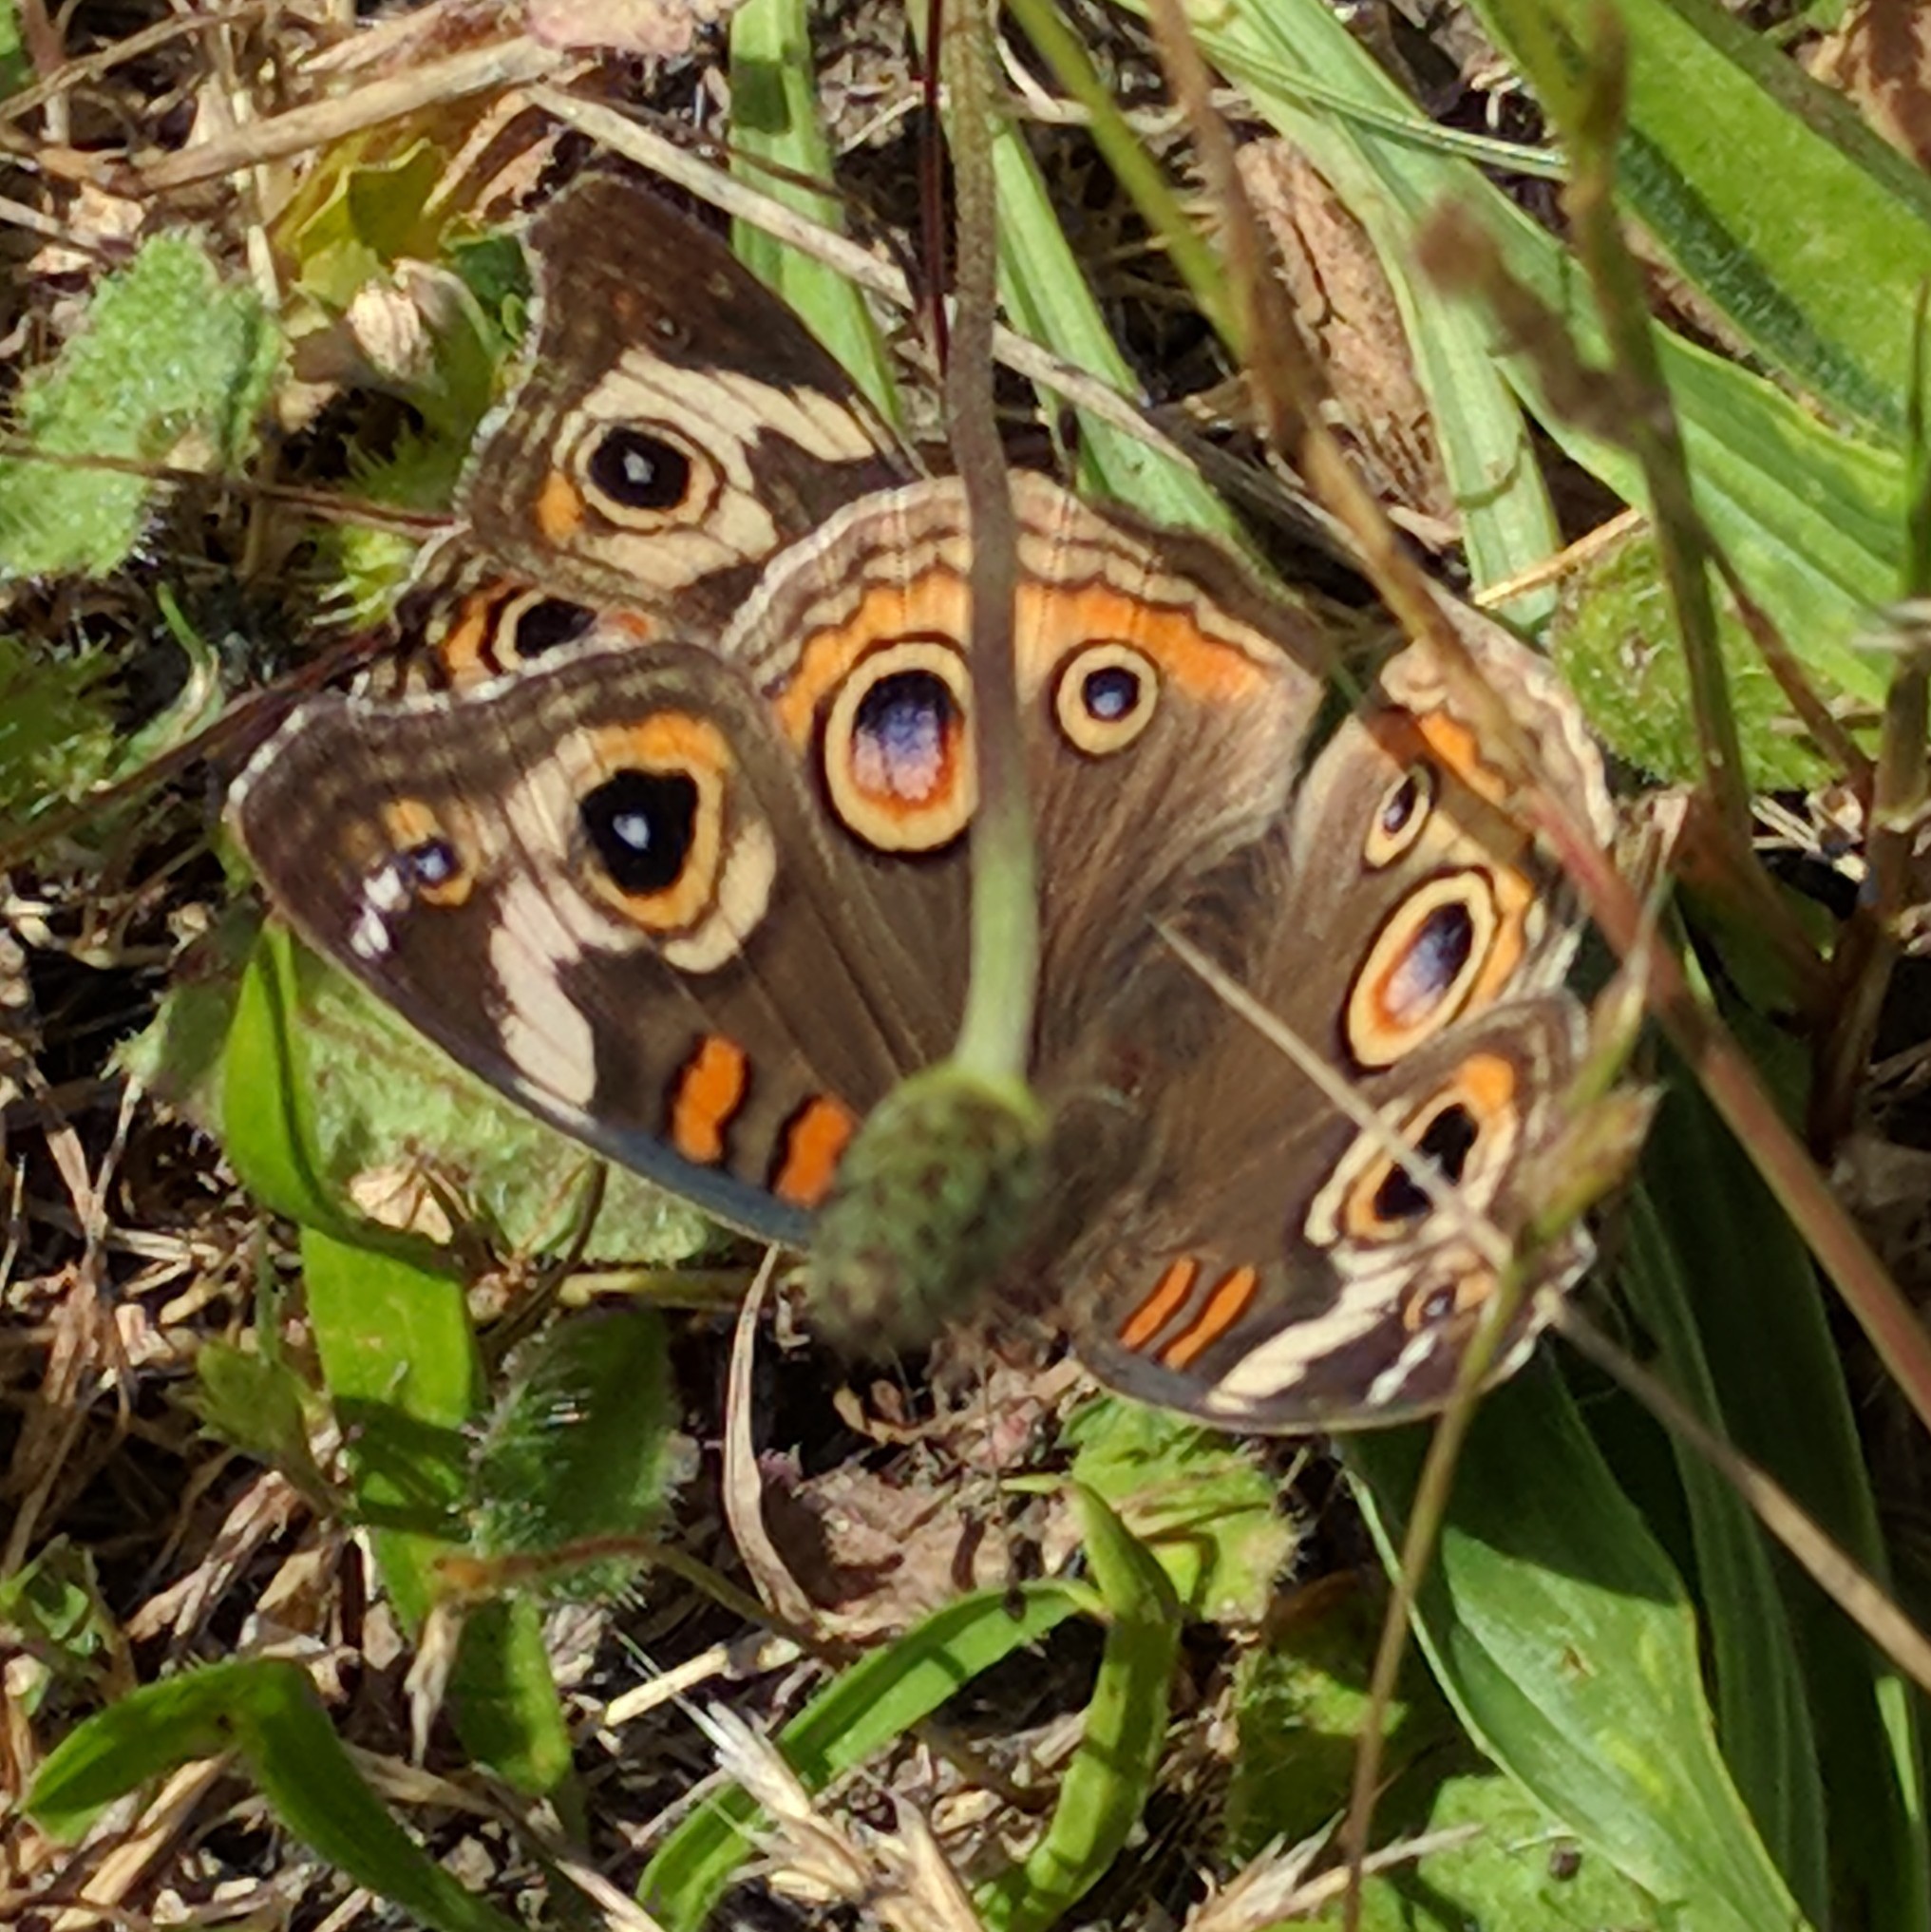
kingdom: Animalia
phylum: Arthropoda
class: Insecta
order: Lepidoptera
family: Nymphalidae
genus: Junonia
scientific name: Junonia grisea
